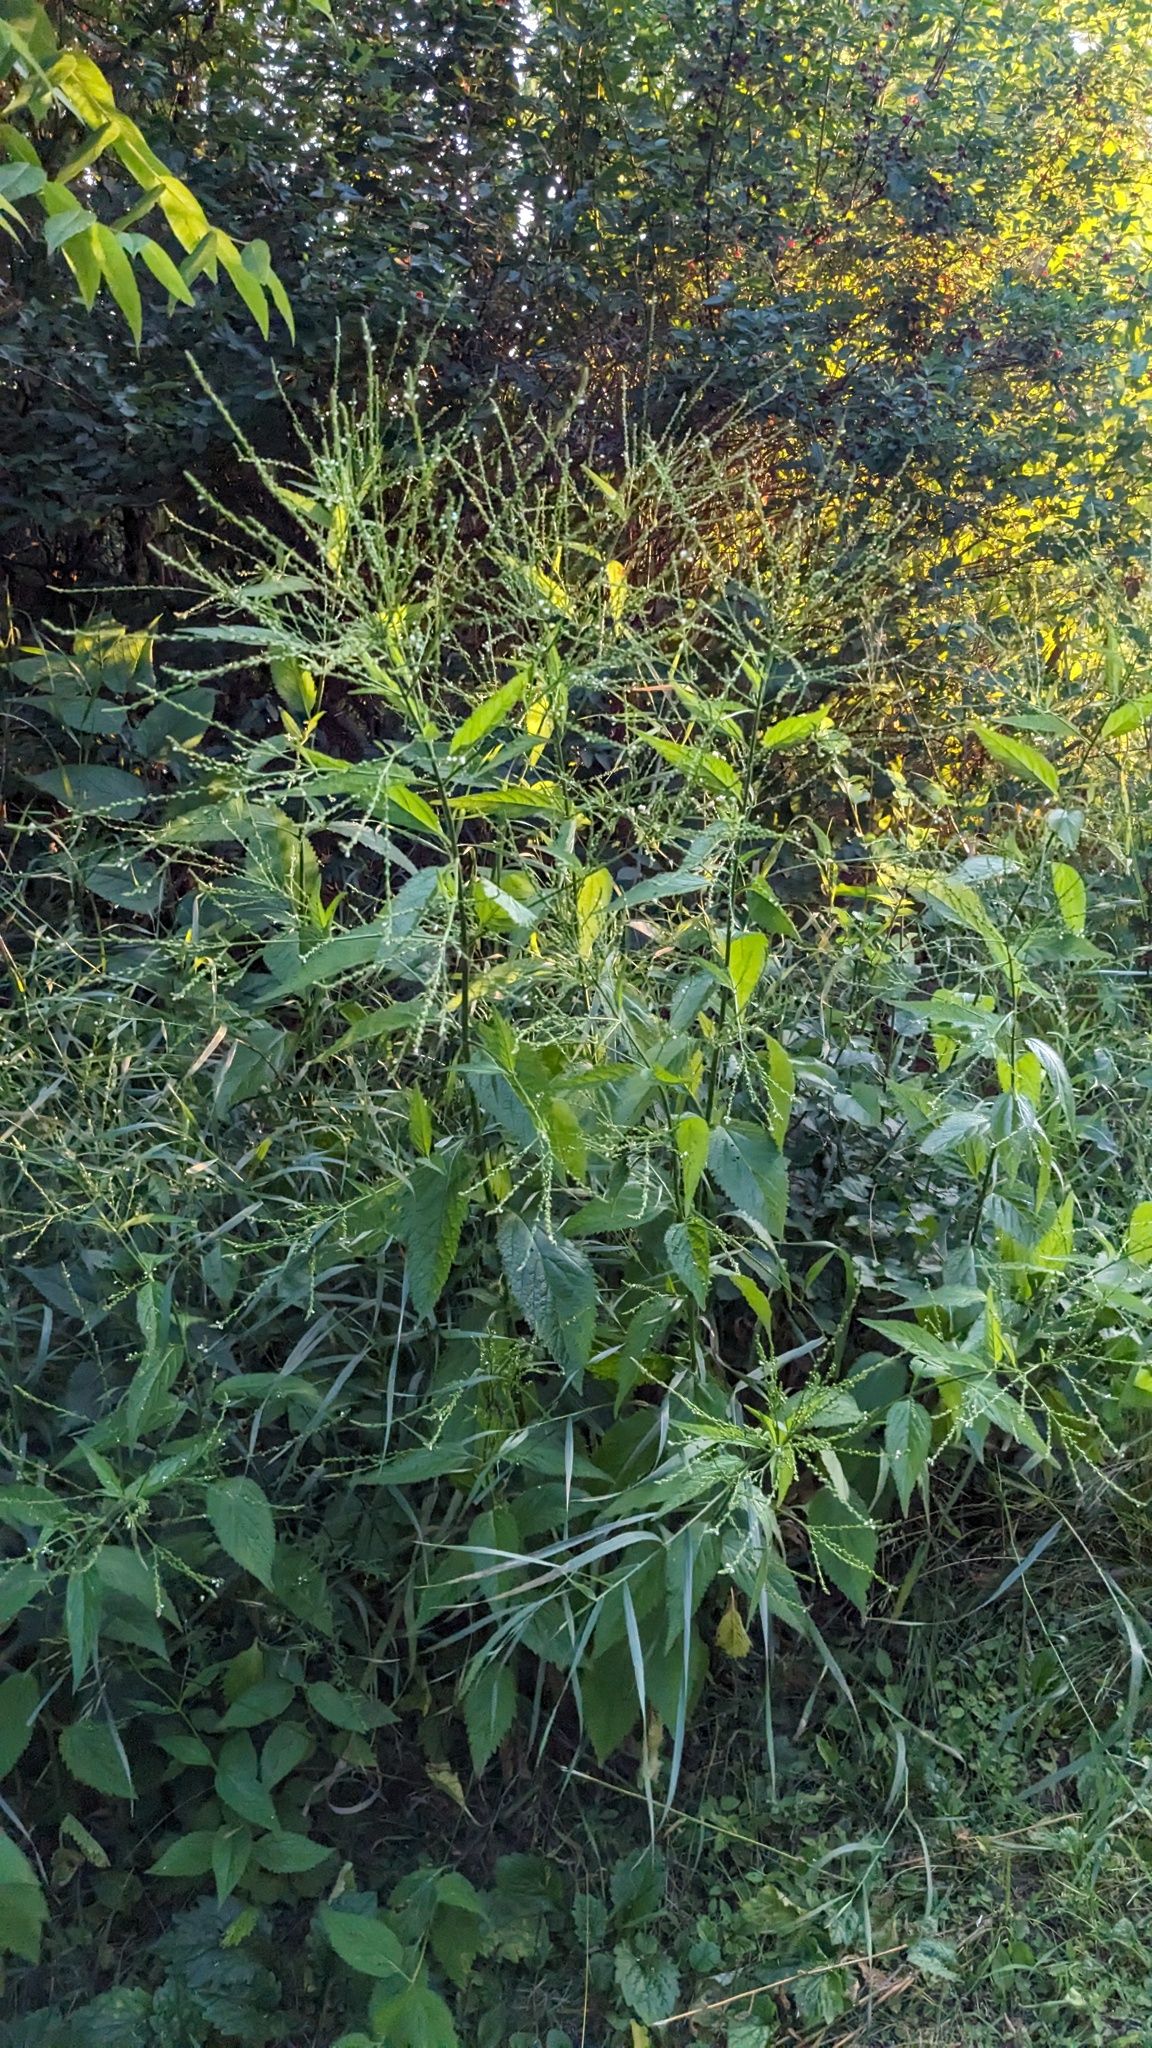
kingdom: Plantae
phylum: Tracheophyta
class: Magnoliopsida
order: Lamiales
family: Verbenaceae
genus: Verbena
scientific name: Verbena urticifolia
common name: Nettle-leaved vervain
